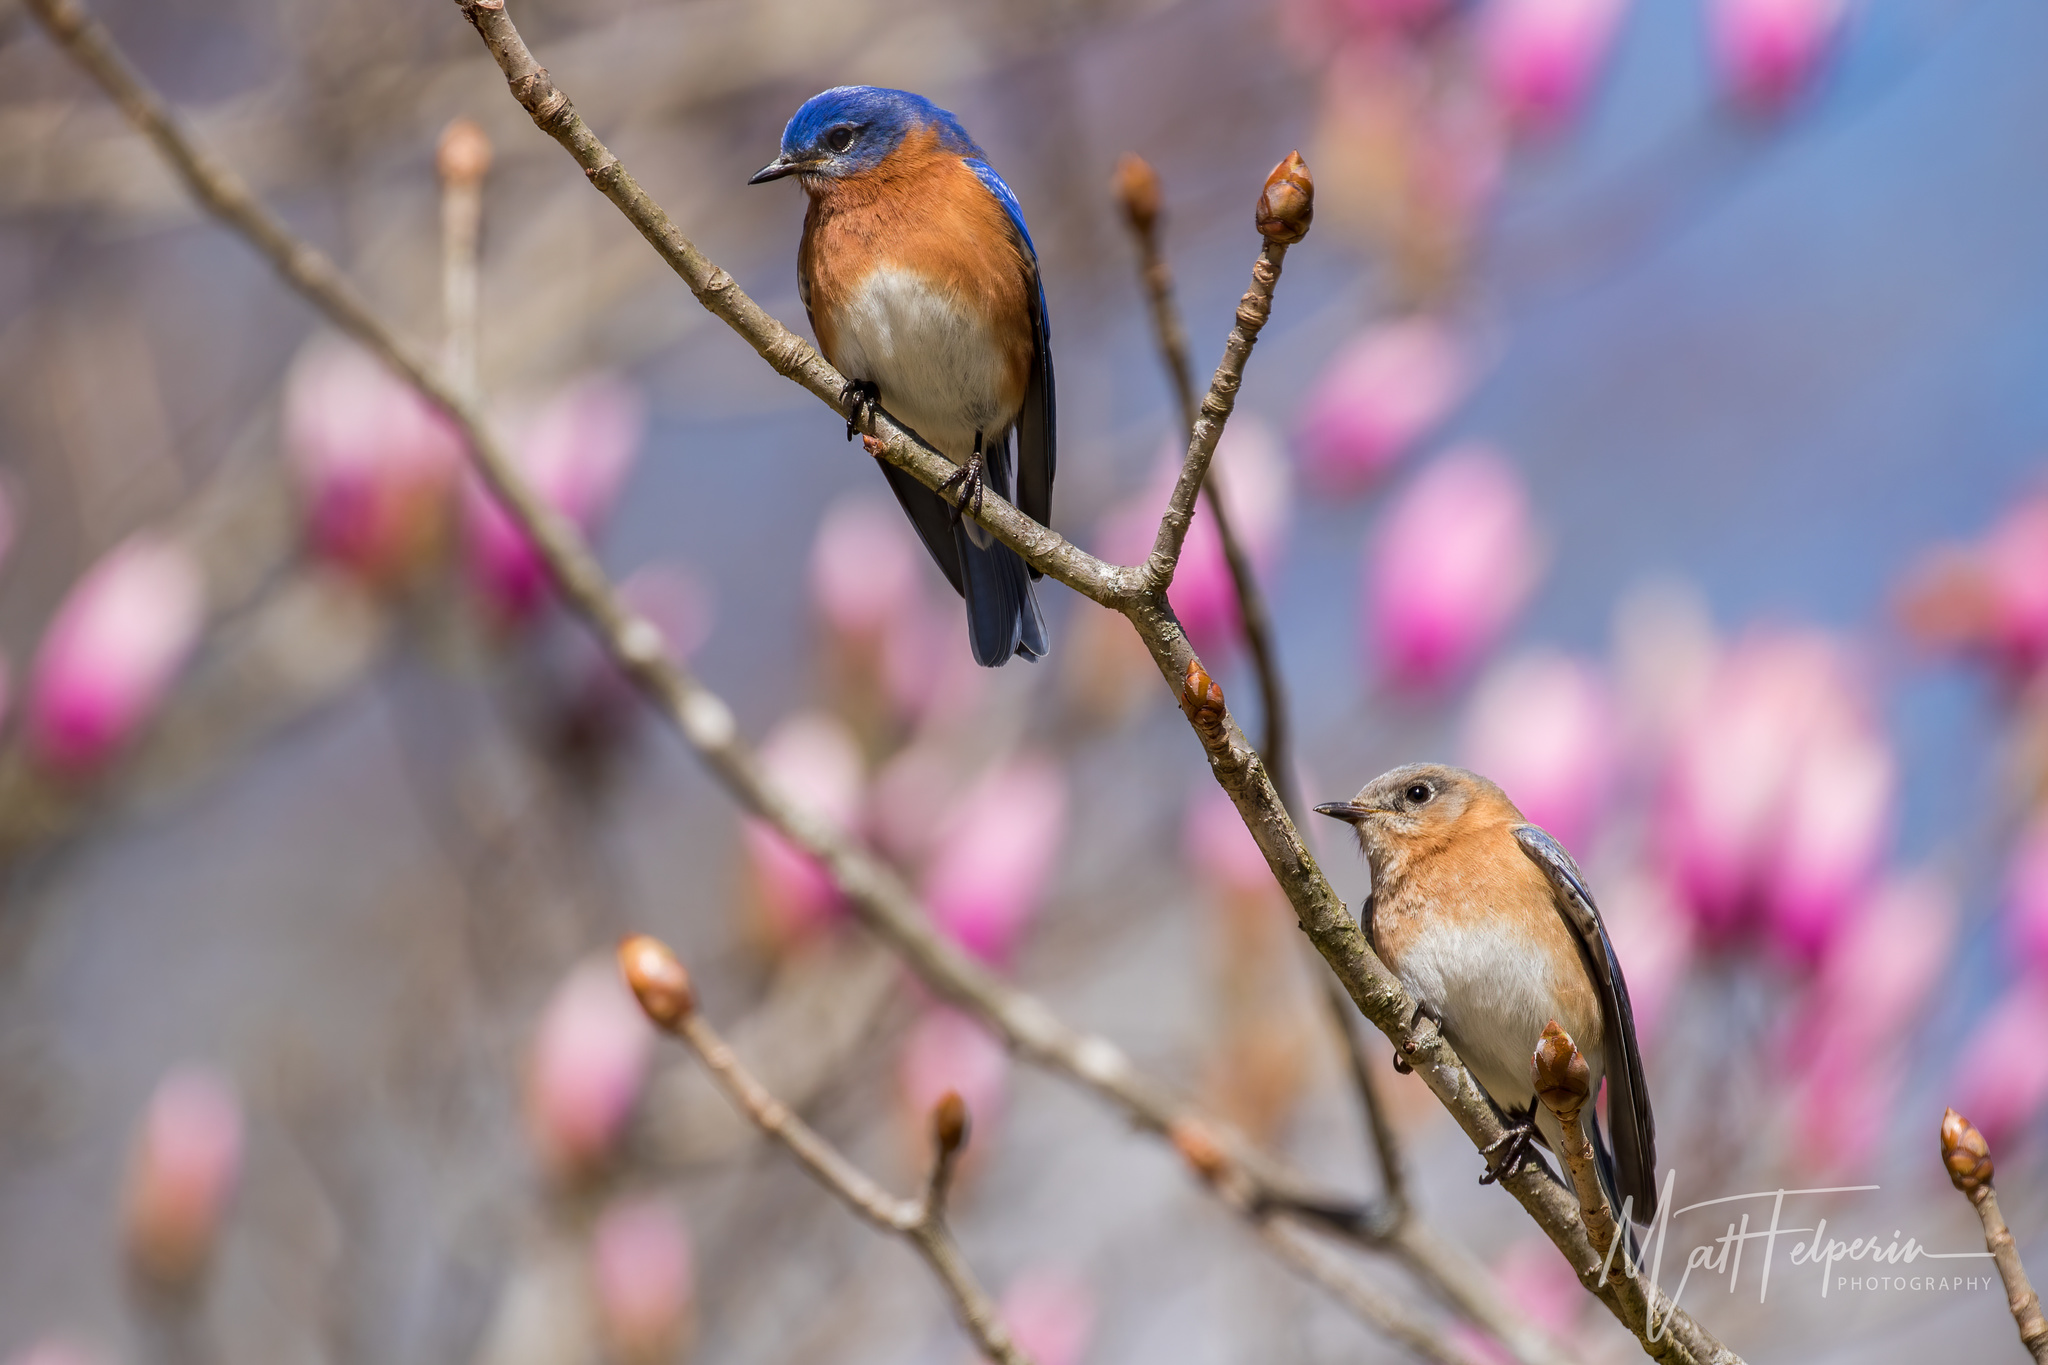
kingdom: Animalia
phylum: Chordata
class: Aves
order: Passeriformes
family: Turdidae
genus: Sialia
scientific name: Sialia sialis
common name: Eastern bluebird
